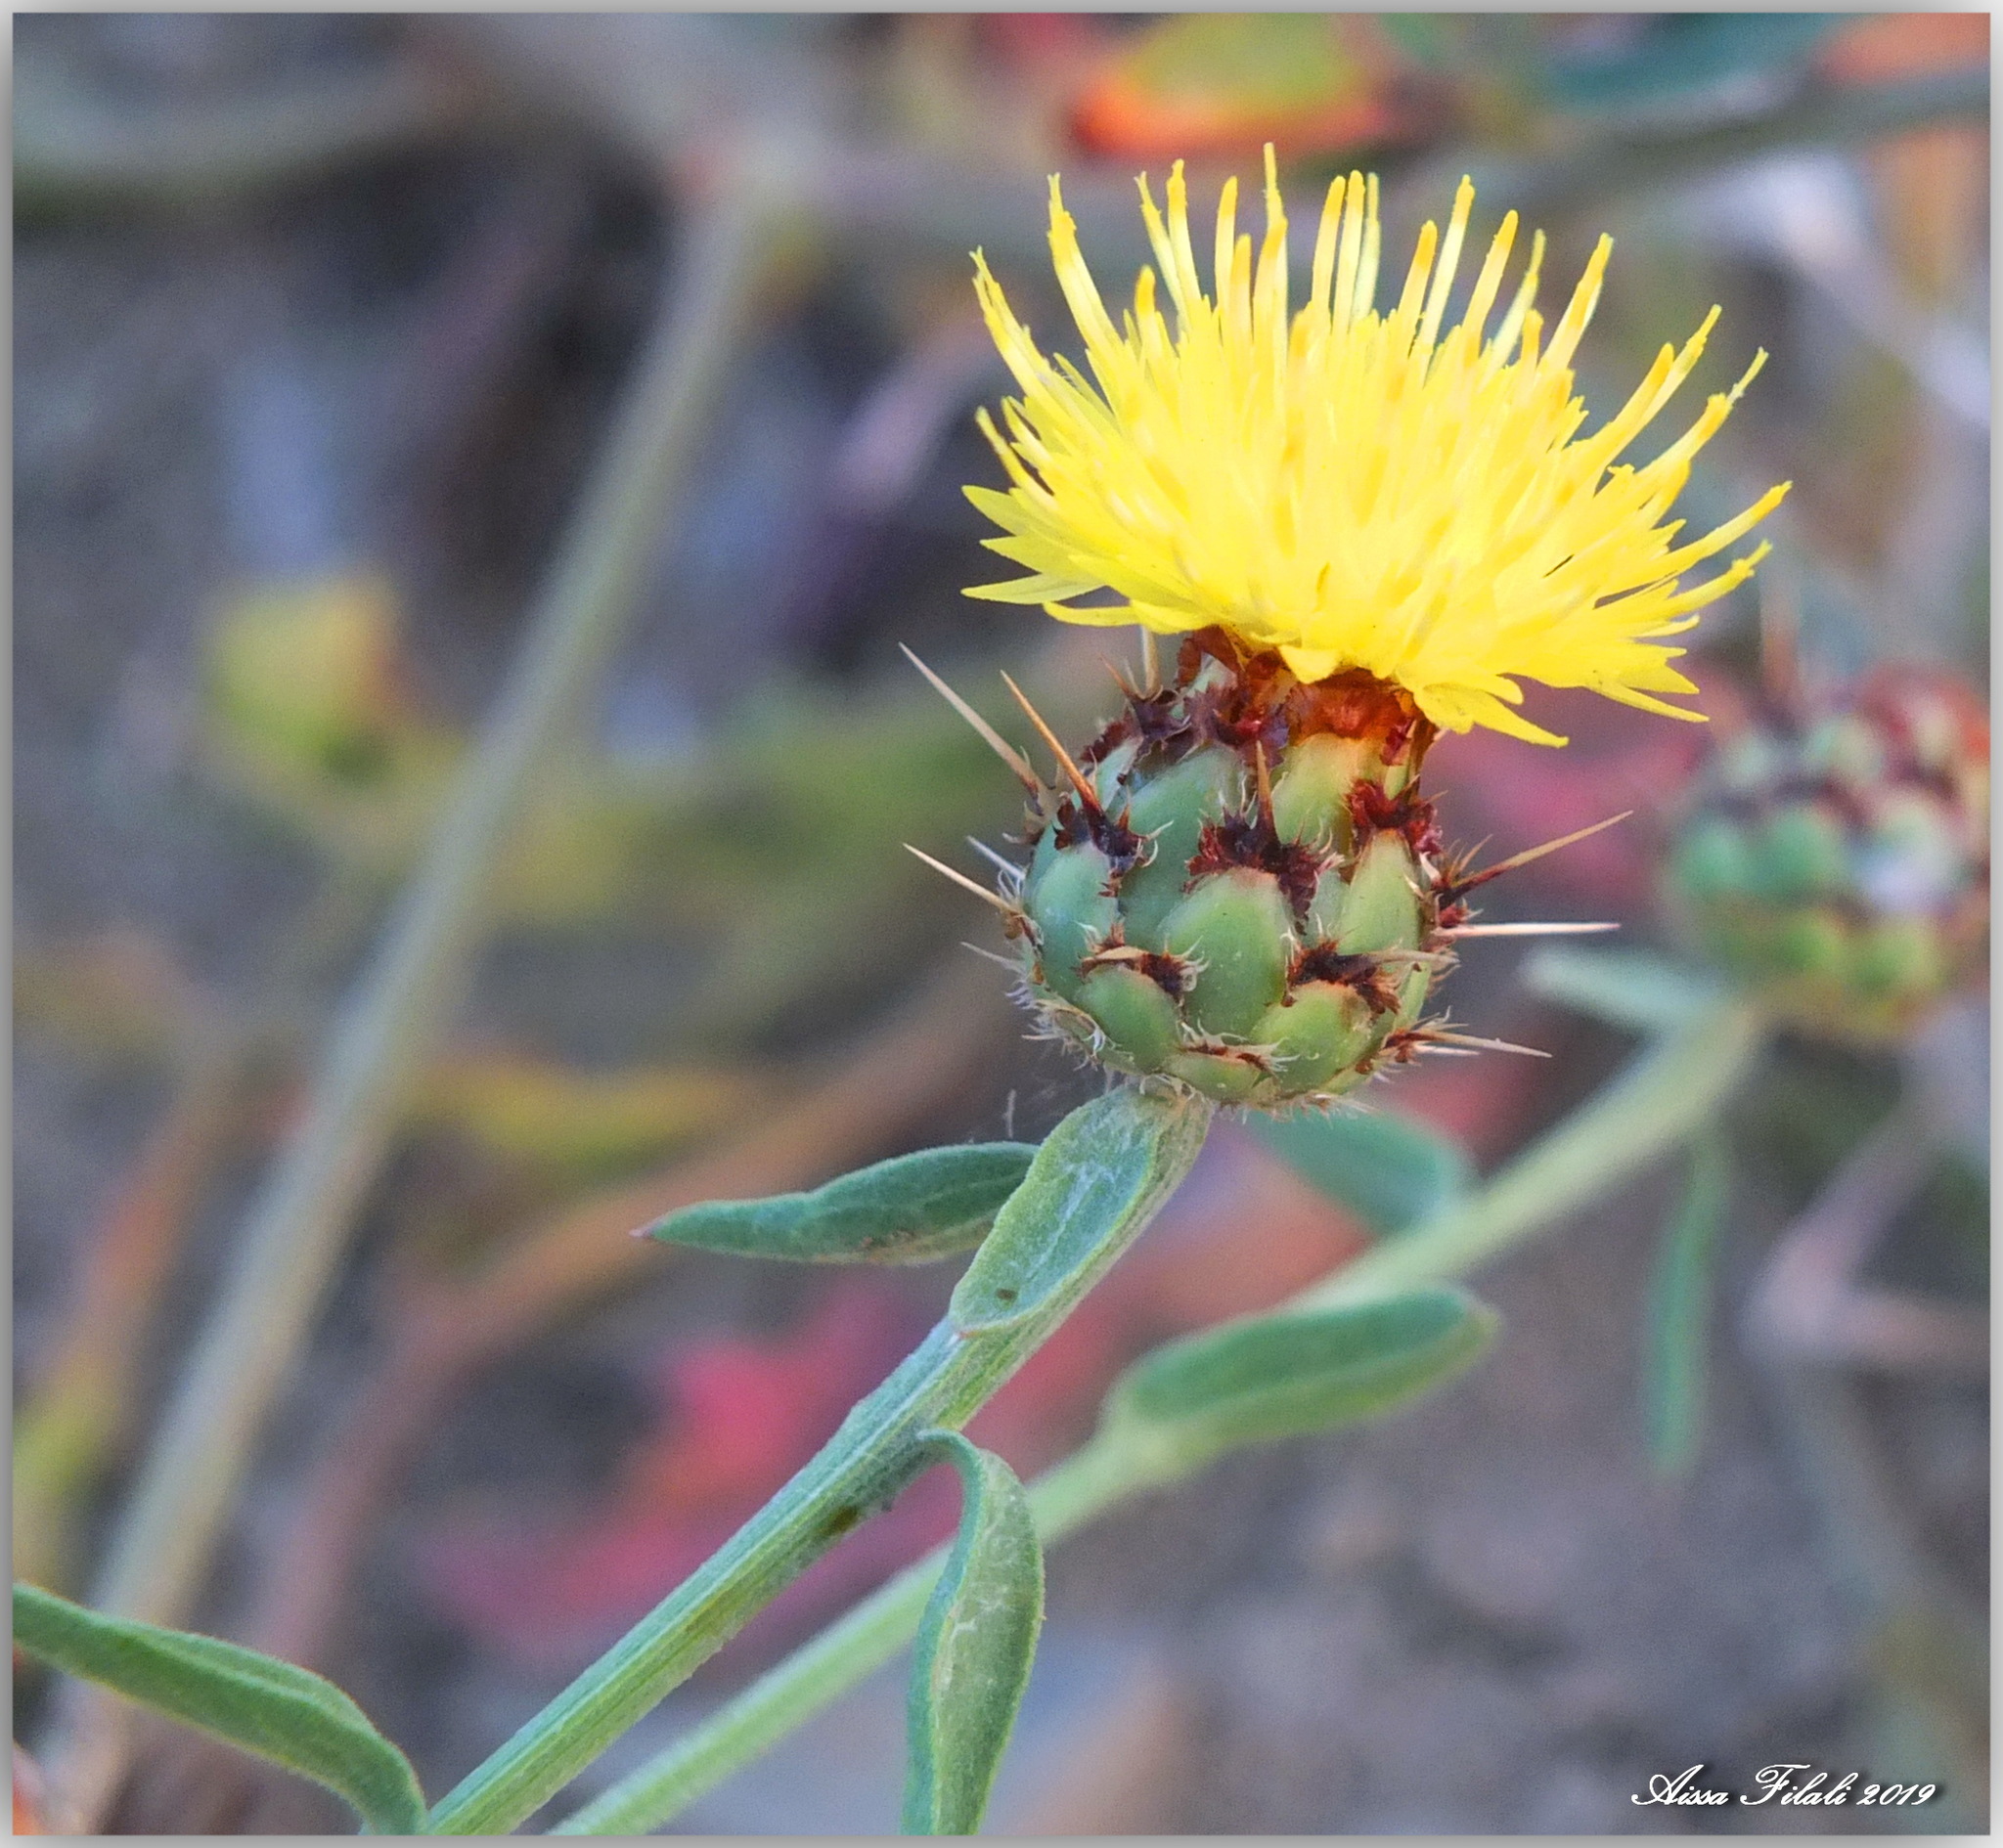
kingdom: Plantae
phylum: Tracheophyta
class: Magnoliopsida
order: Asterales
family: Asteraceae
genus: Centaurea
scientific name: Centaurea sicula
